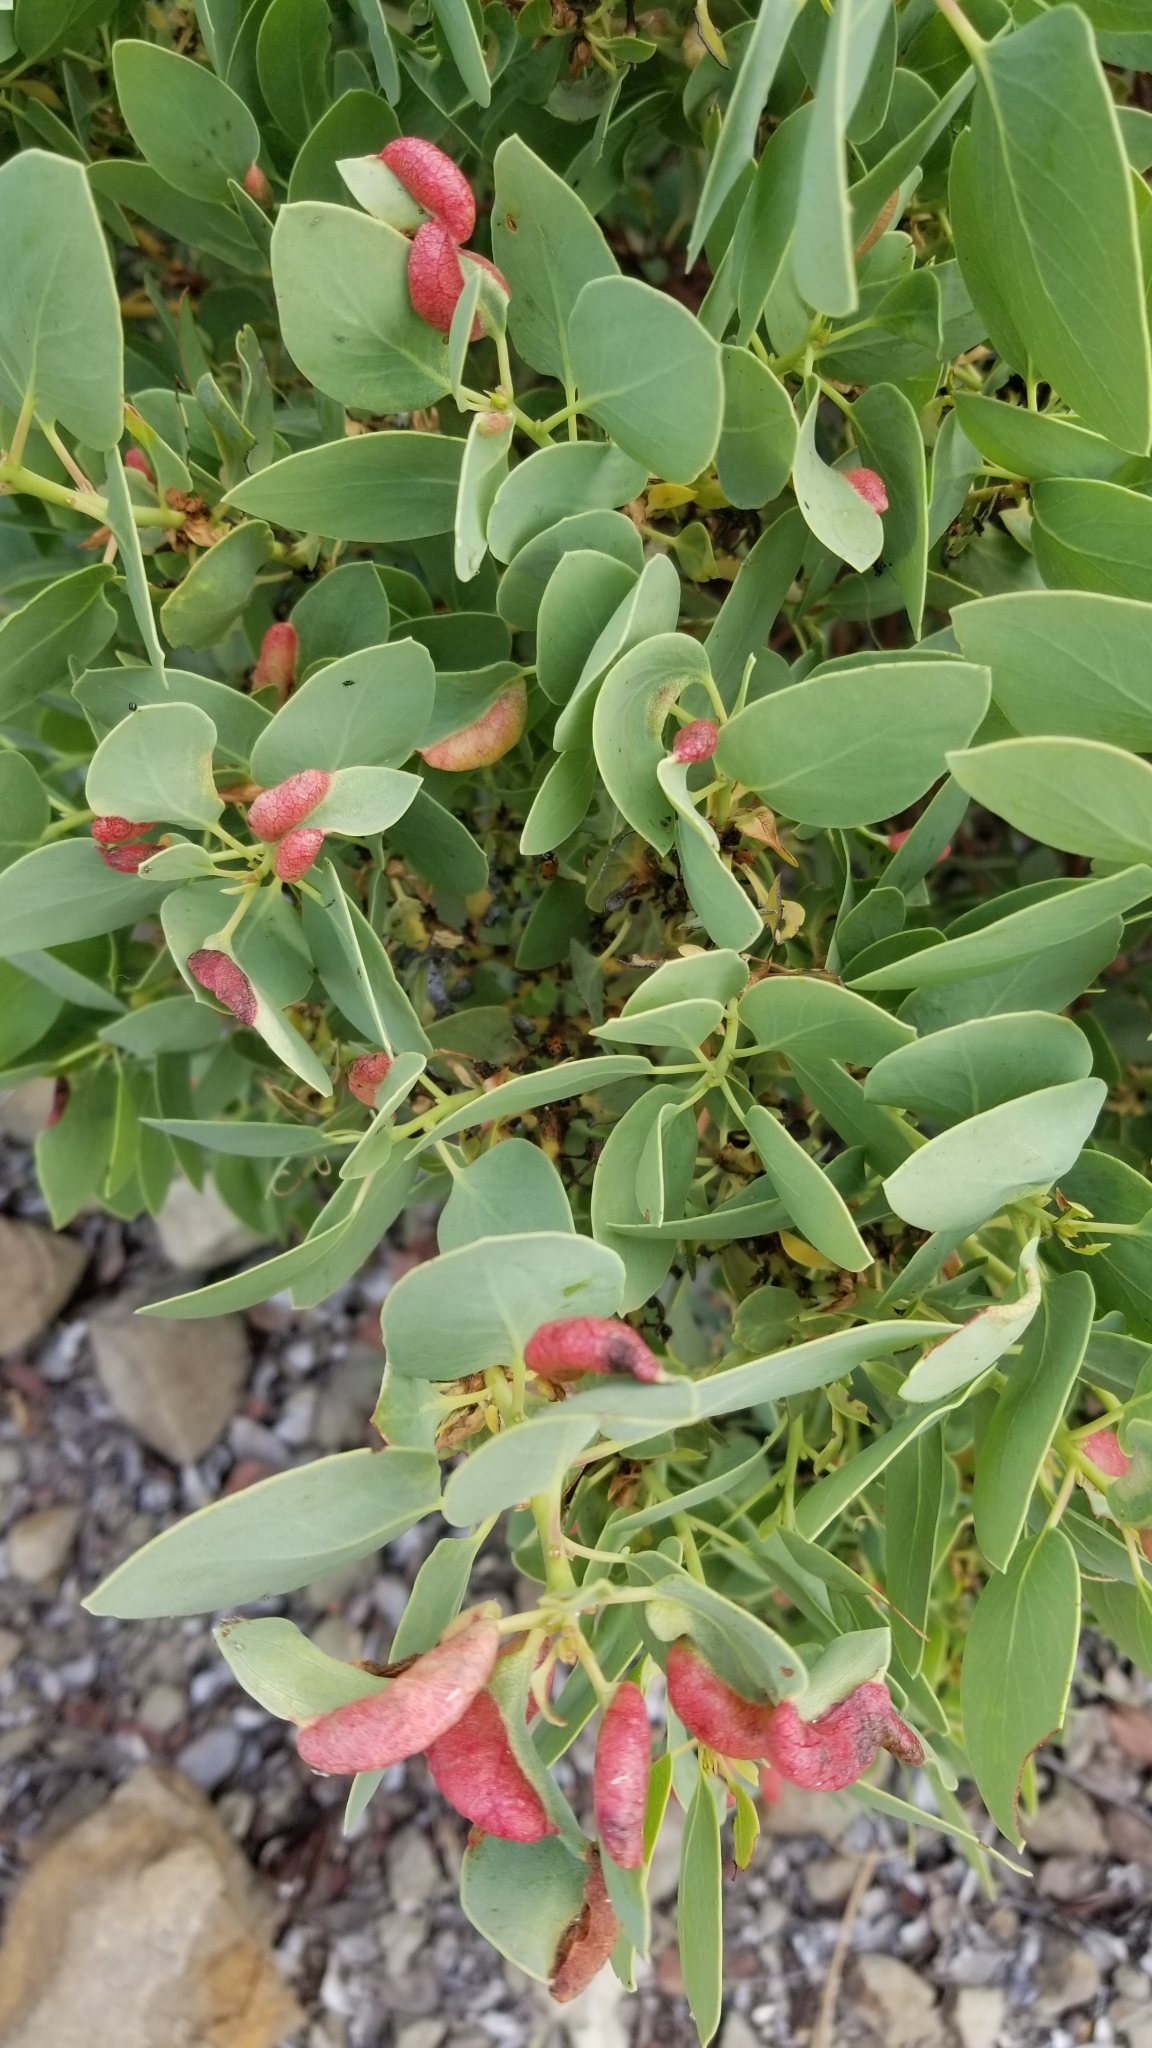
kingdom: Animalia
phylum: Arthropoda
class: Insecta
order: Hemiptera
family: Aphididae
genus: Tamalia
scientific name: Tamalia coweni
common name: Manzanita leafgall aphid
